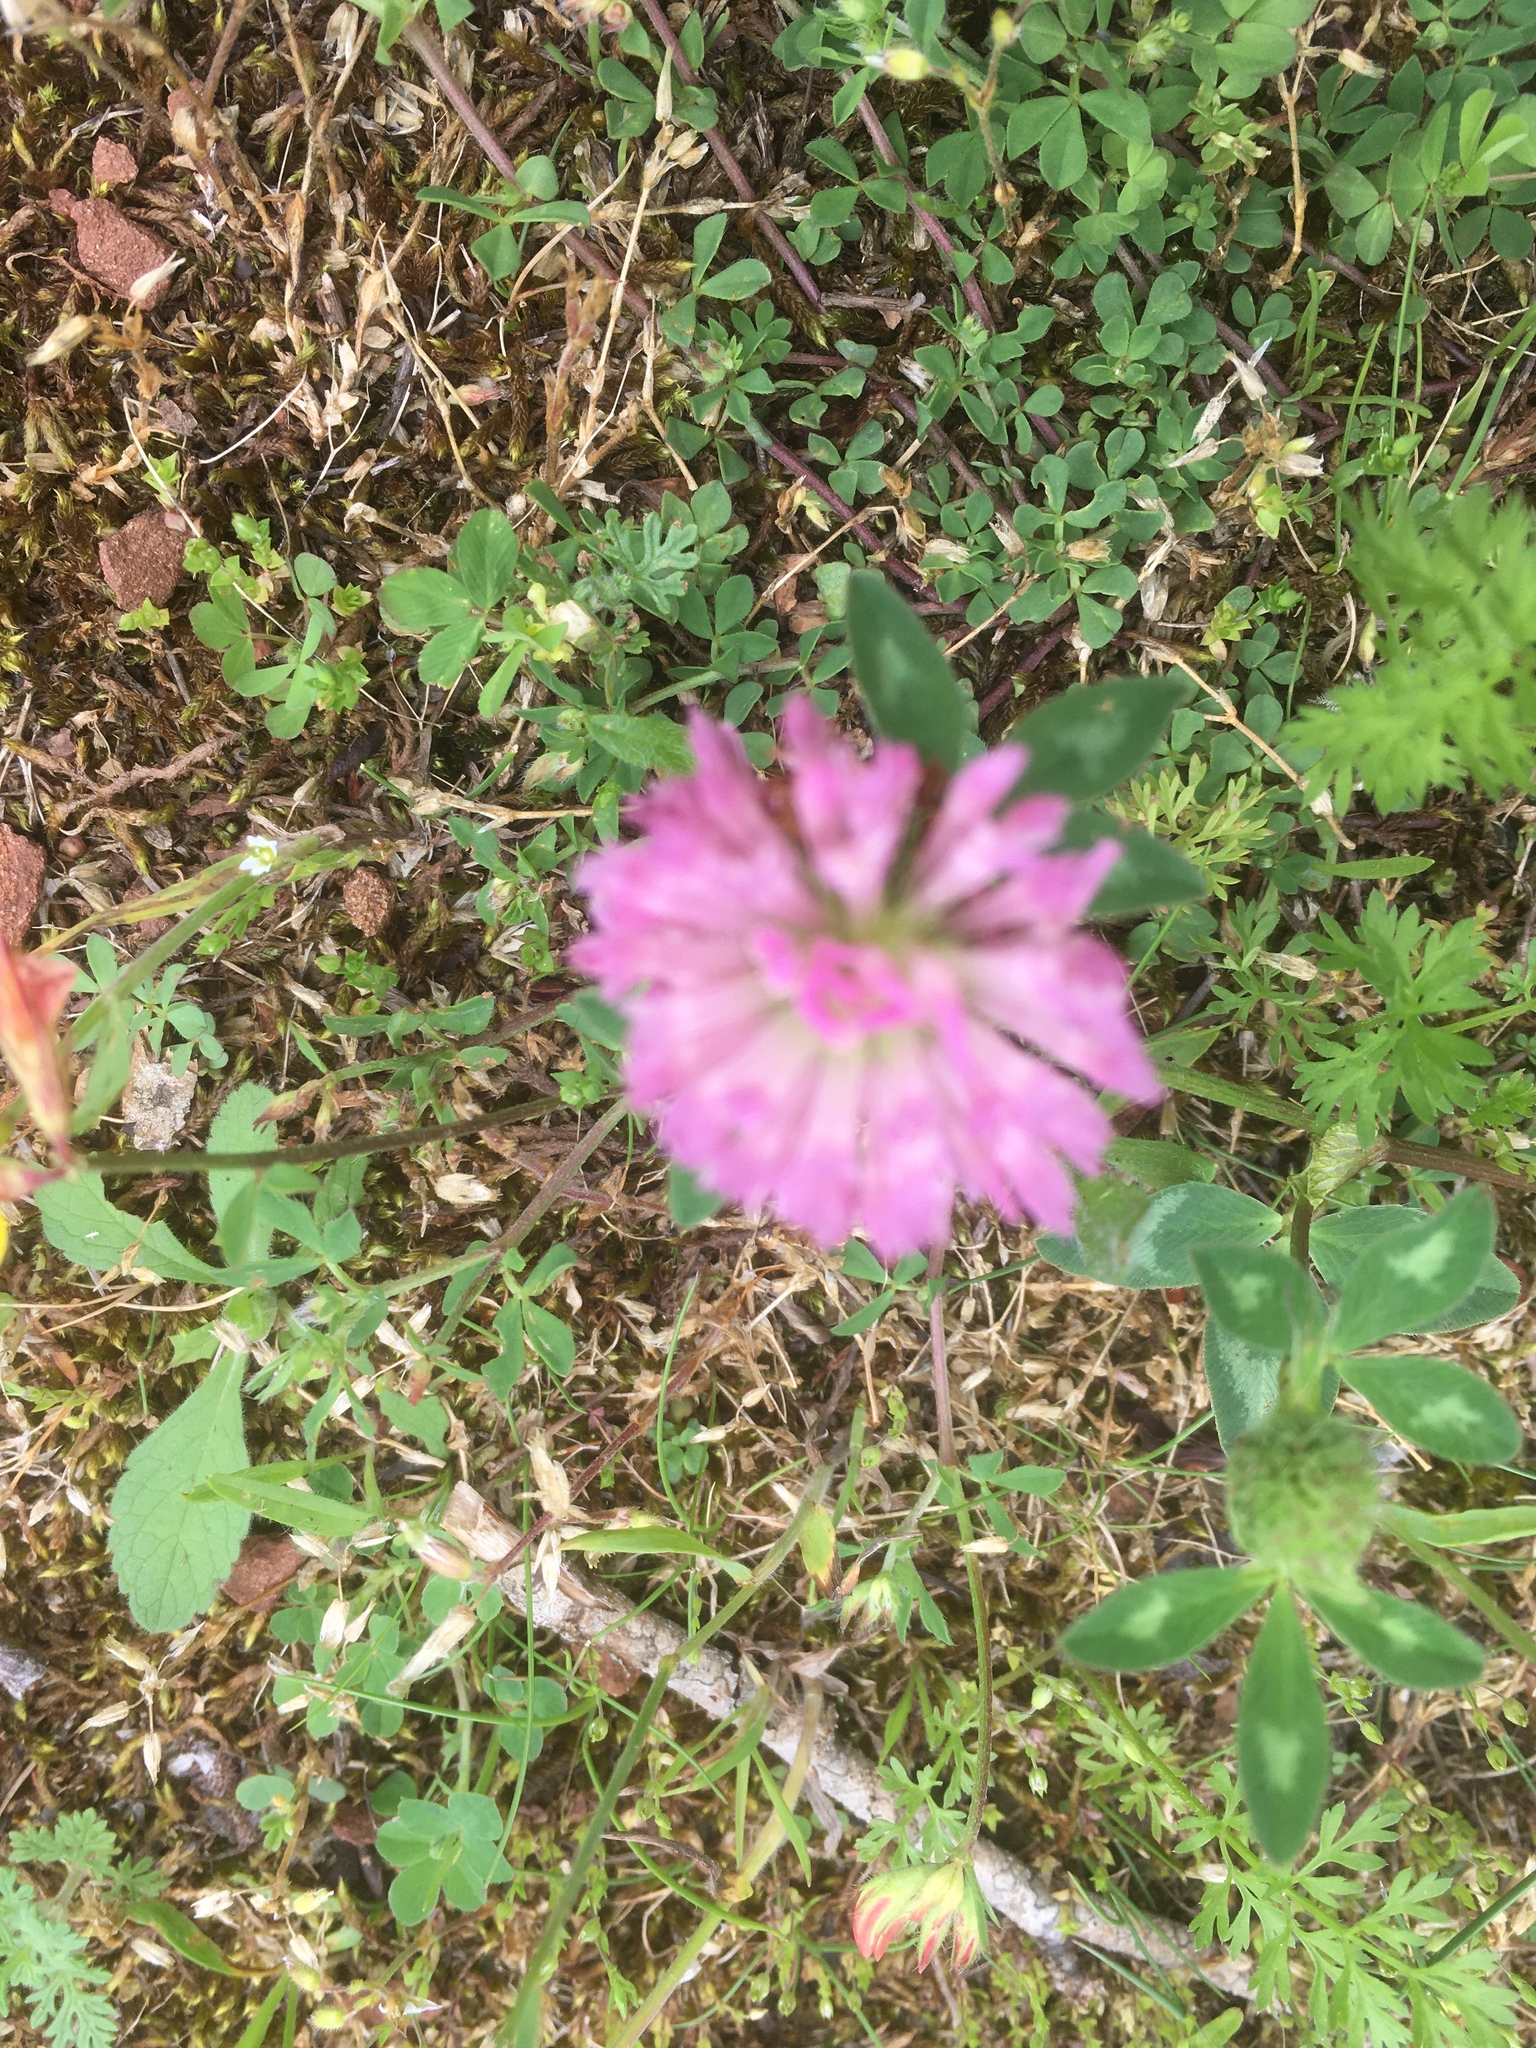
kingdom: Plantae
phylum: Tracheophyta
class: Magnoliopsida
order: Fabales
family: Fabaceae
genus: Trifolium
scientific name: Trifolium pratense
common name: Red clover
